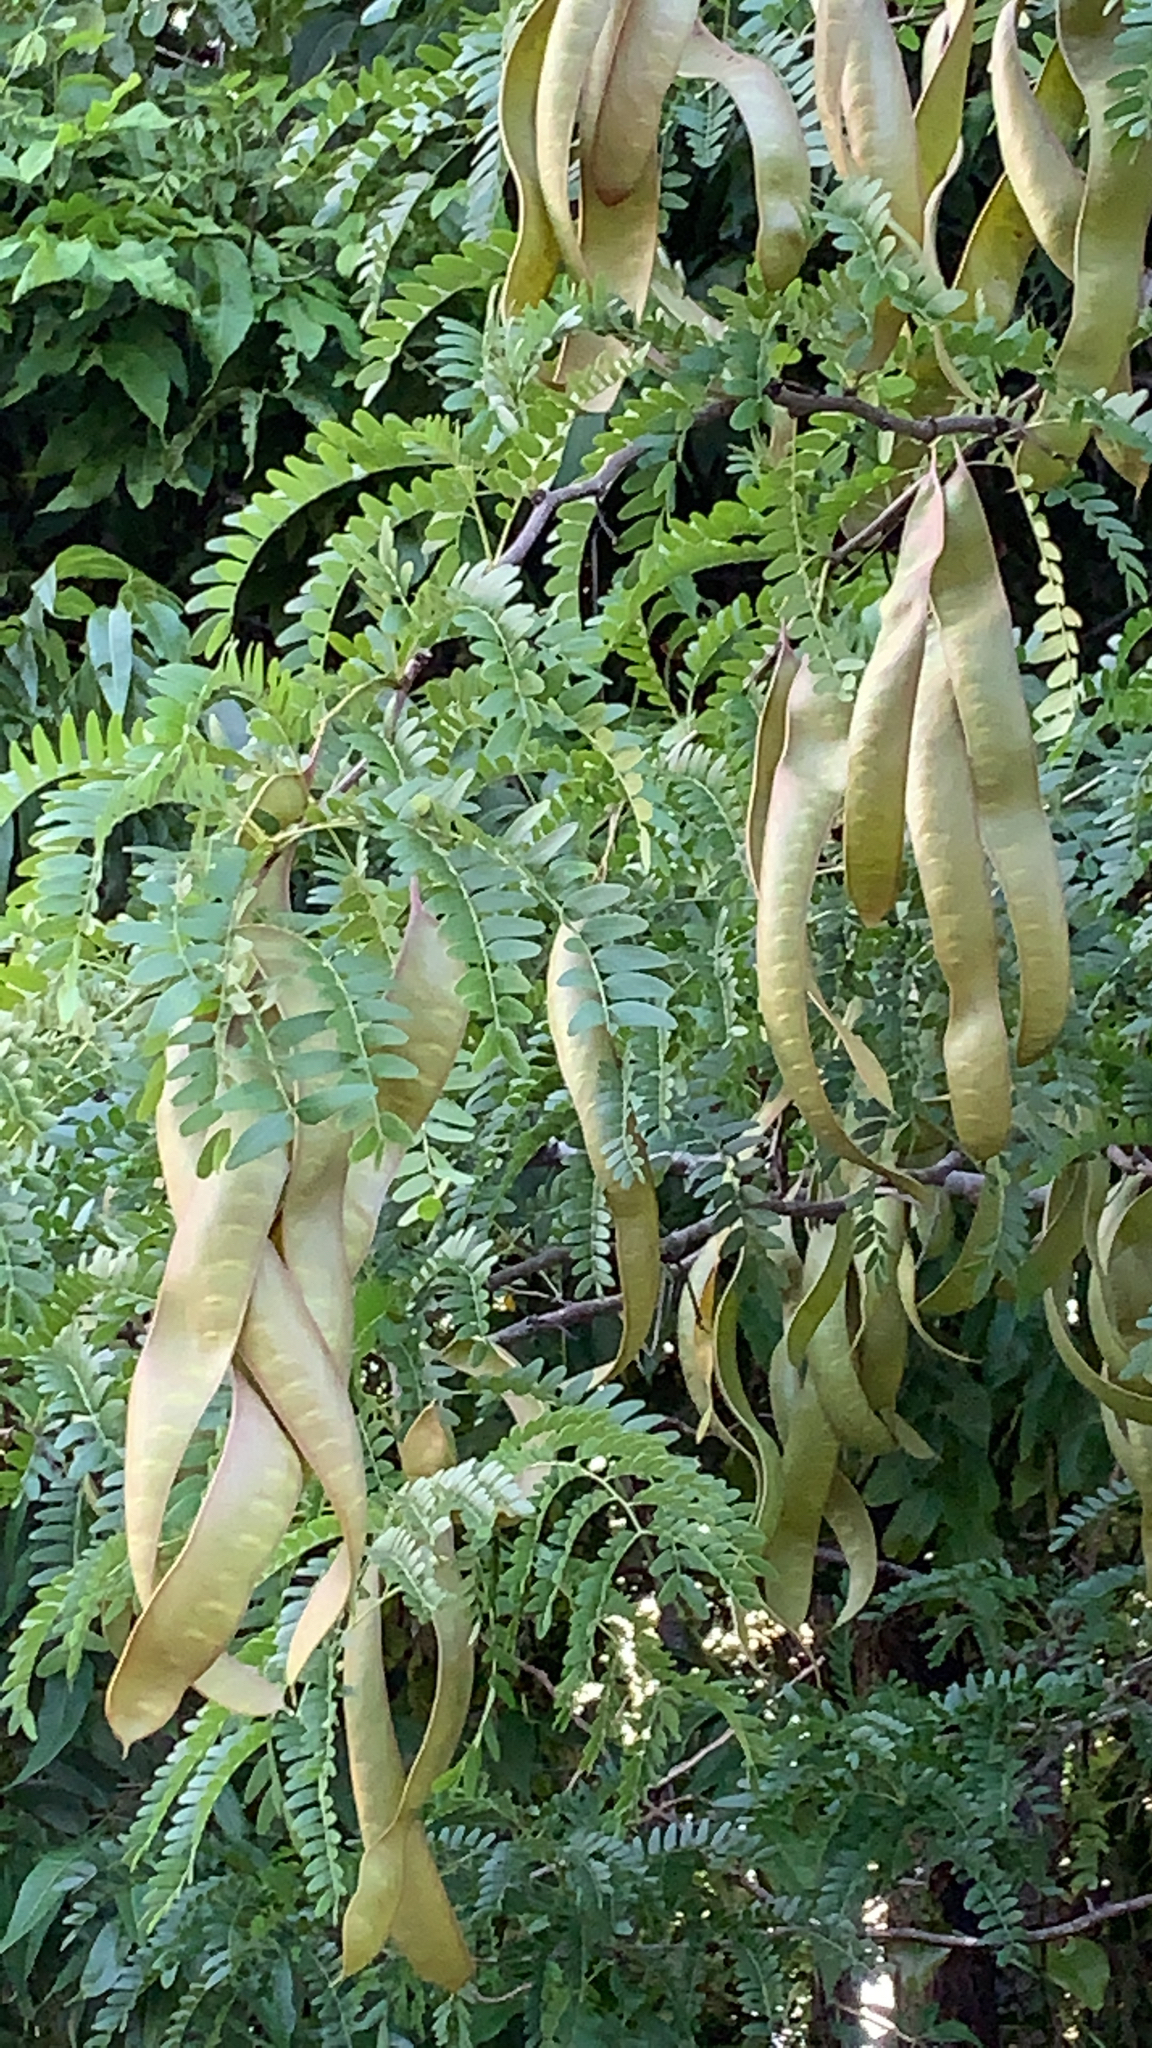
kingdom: Plantae
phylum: Tracheophyta
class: Magnoliopsida
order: Fabales
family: Fabaceae
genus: Gleditsia
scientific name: Gleditsia triacanthos
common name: Common honeylocust
